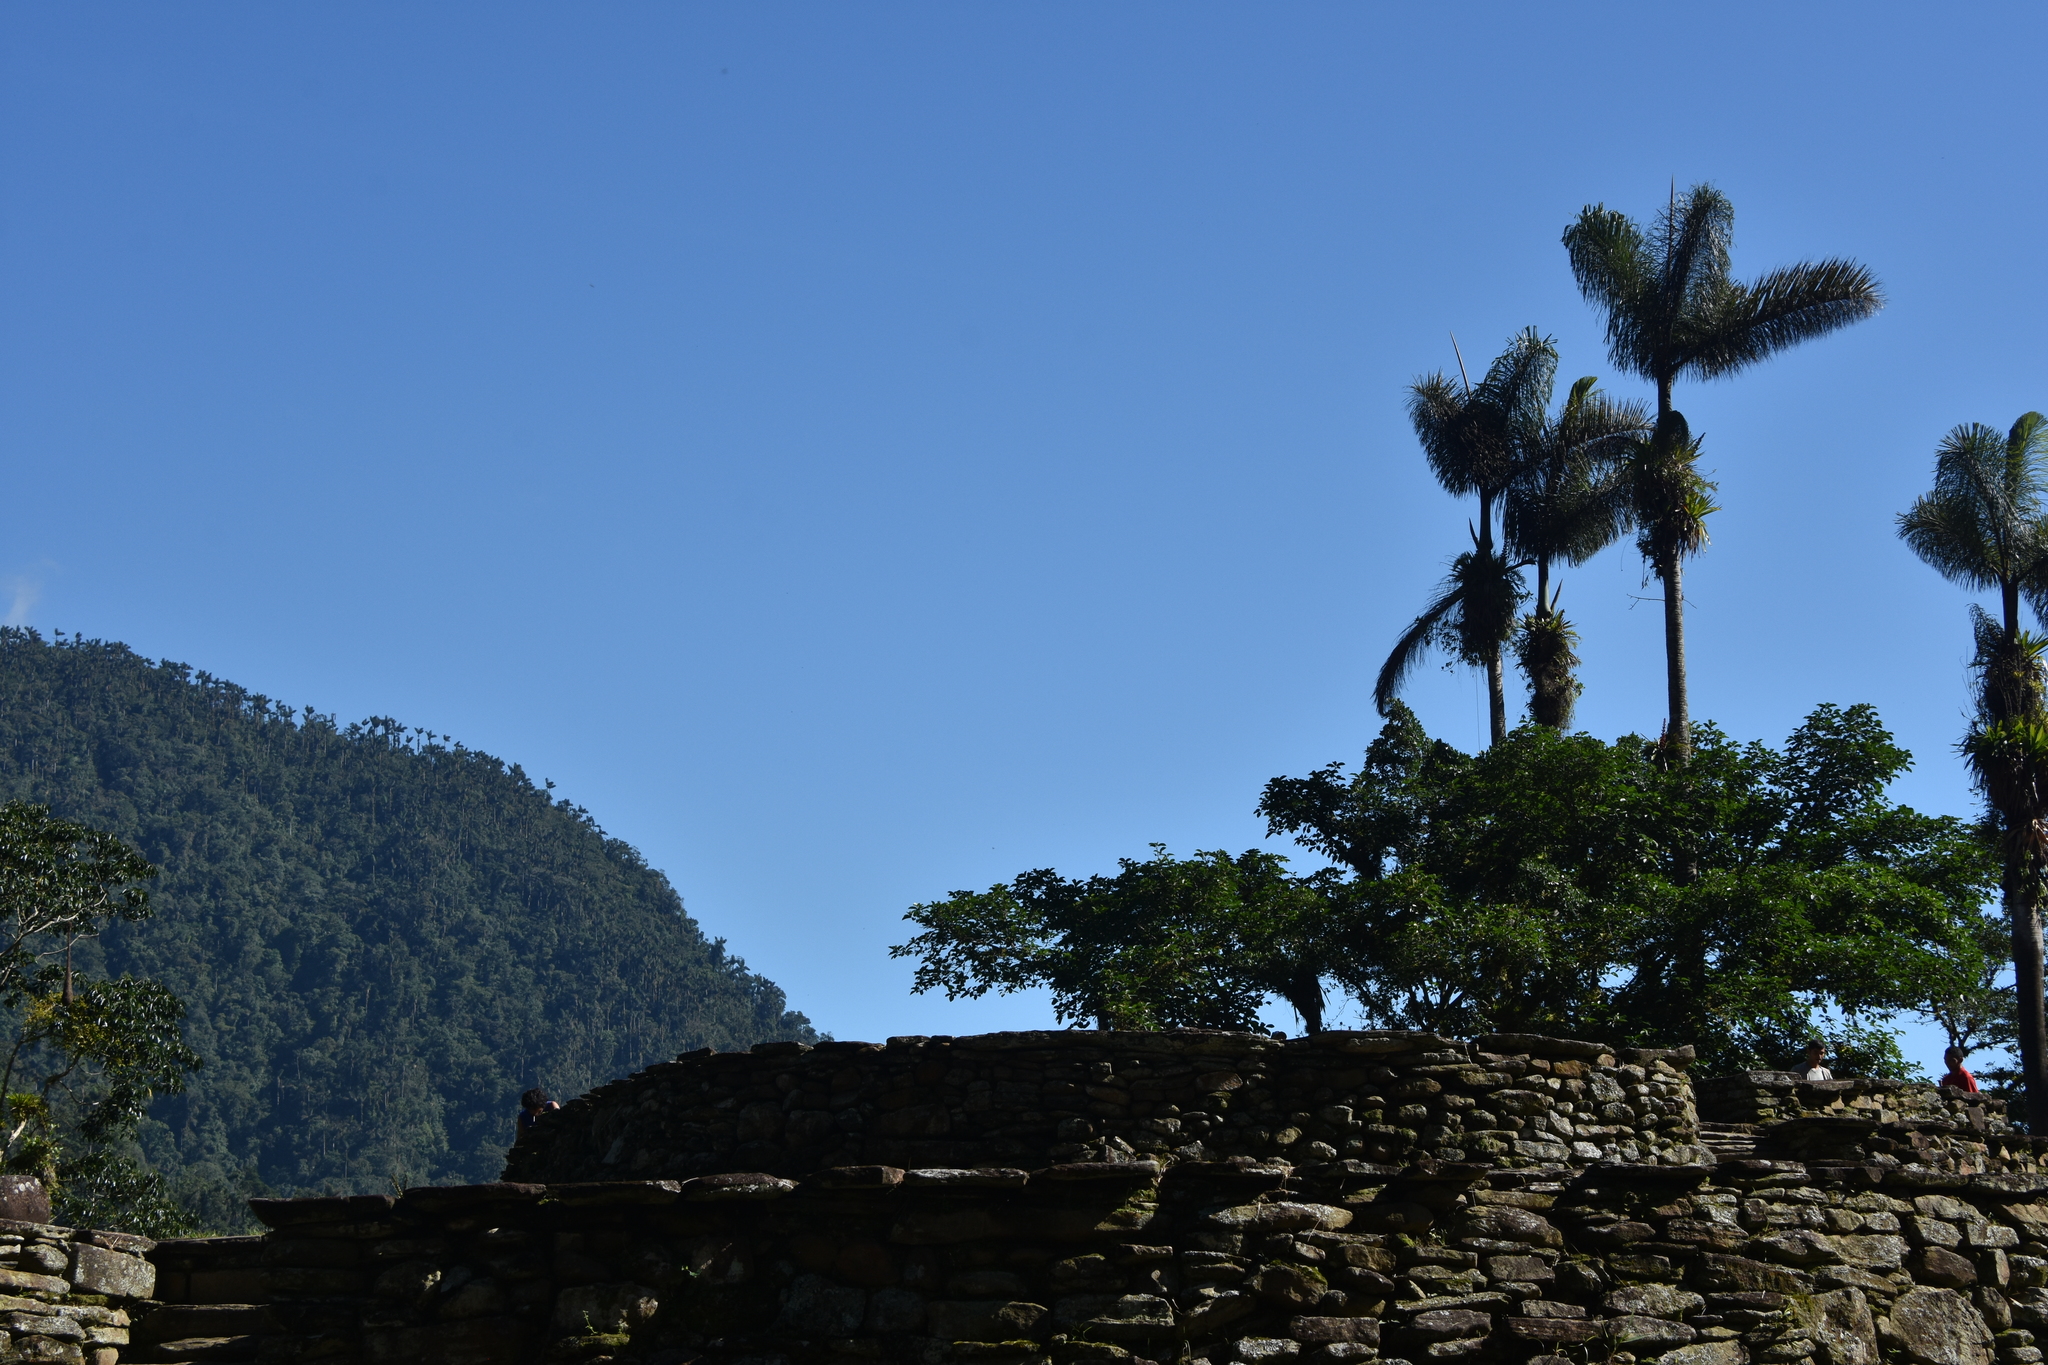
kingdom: Plantae
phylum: Tracheophyta
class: Liliopsida
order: Arecales
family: Arecaceae
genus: Dictyocaryum
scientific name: Dictyocaryum lamarckianum
